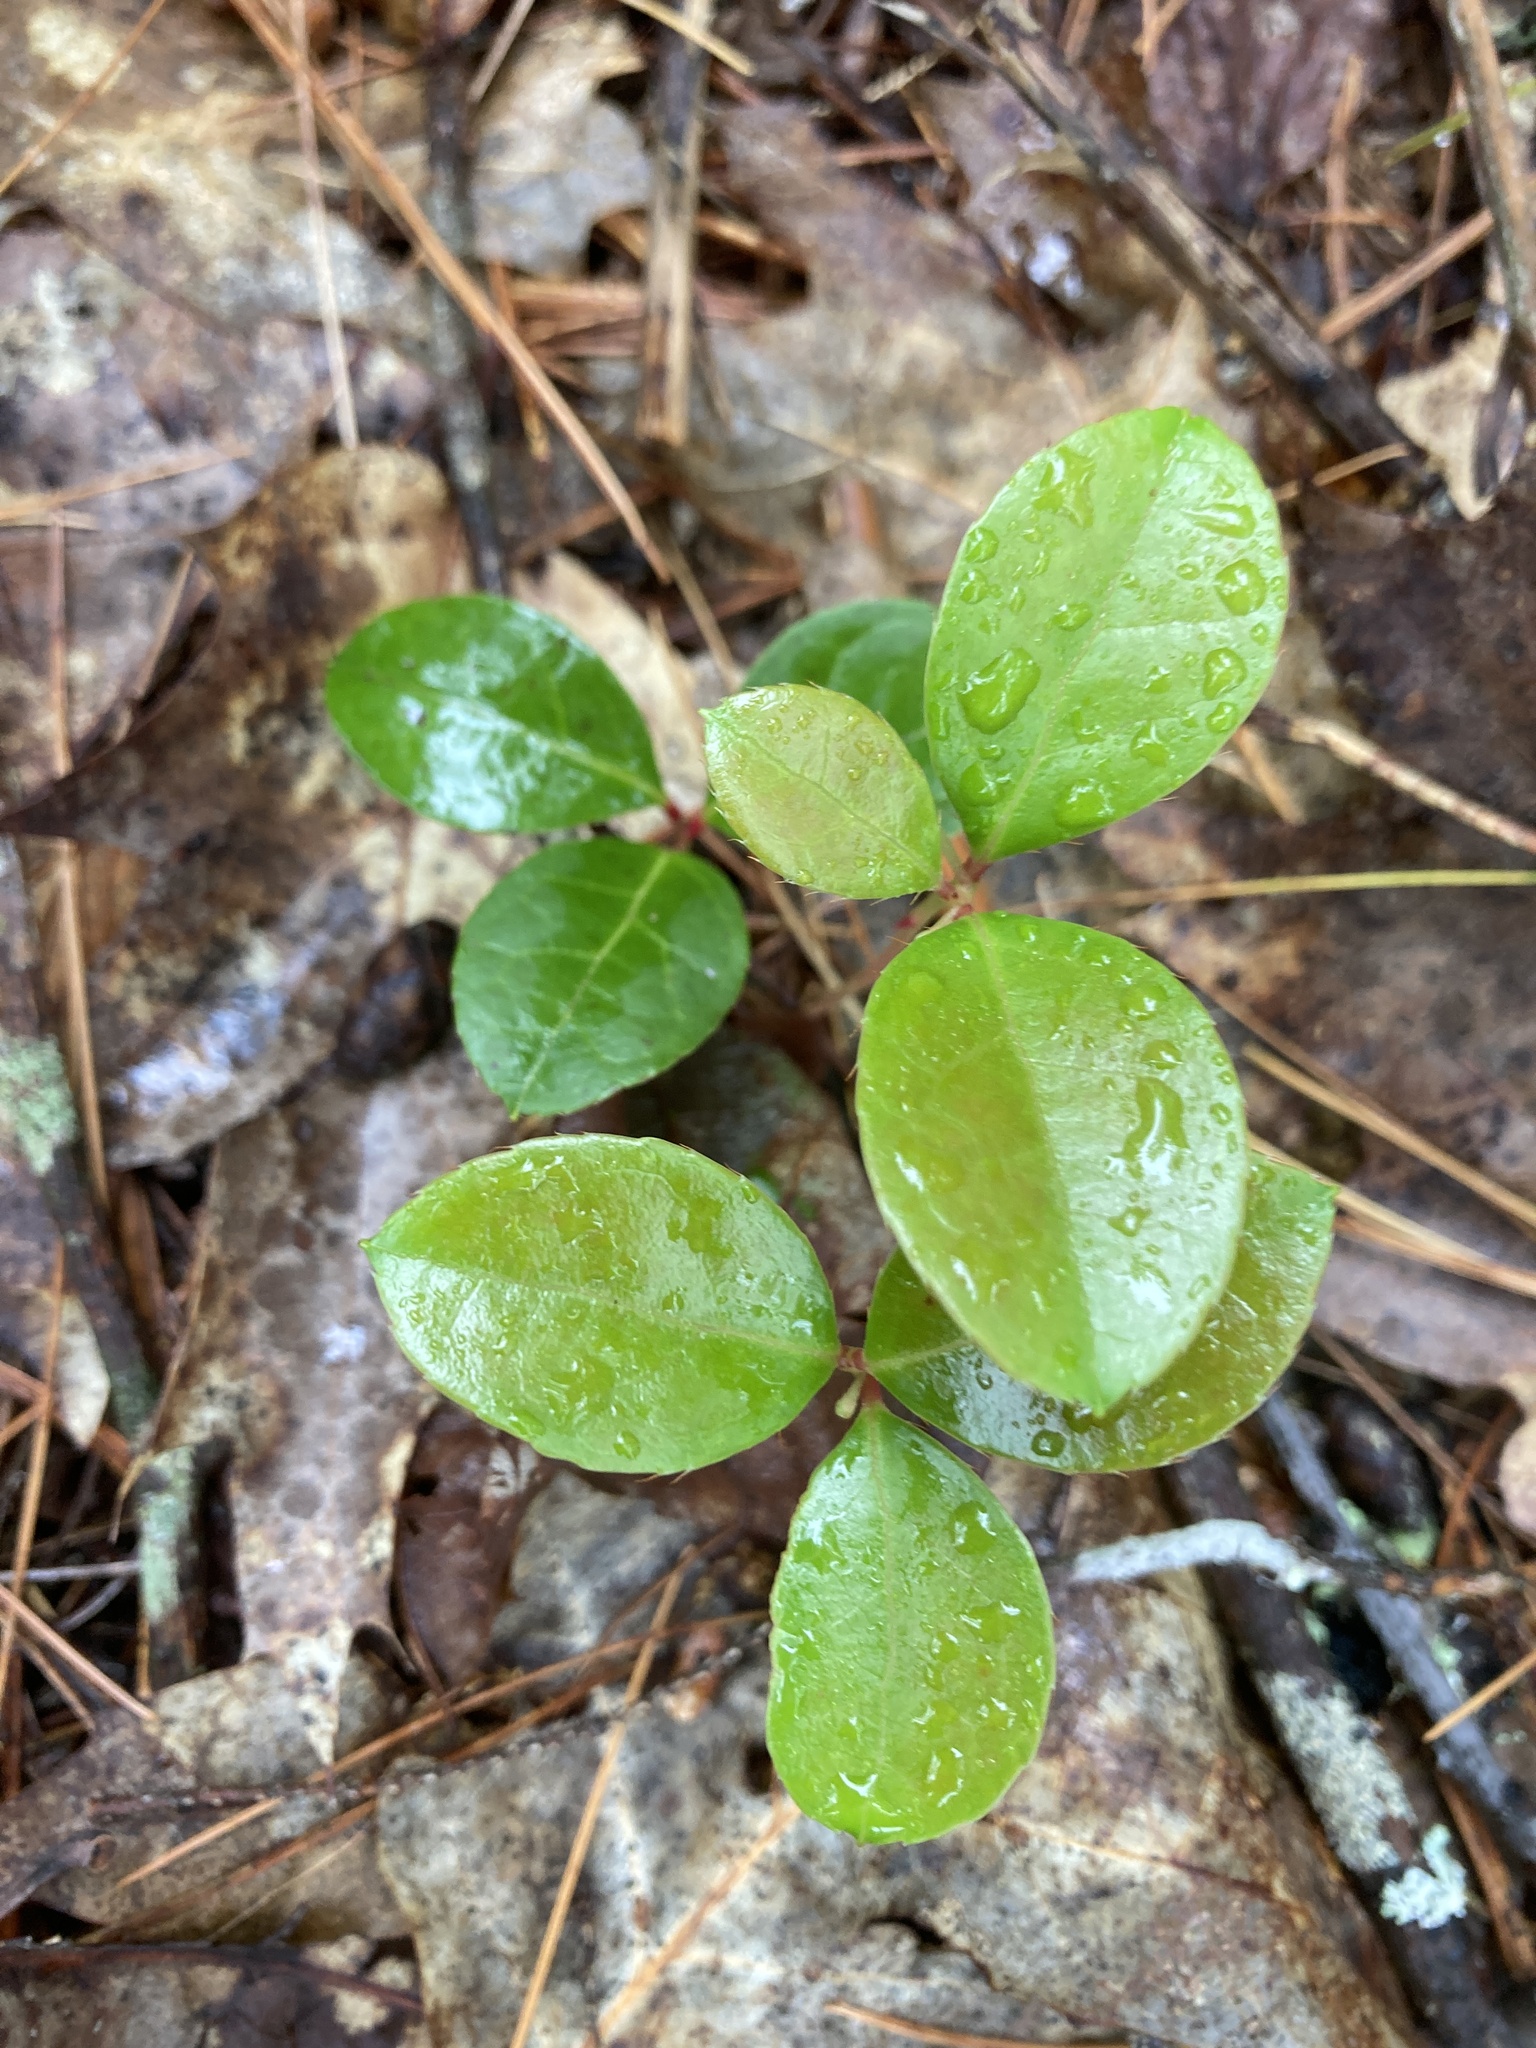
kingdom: Plantae
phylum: Tracheophyta
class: Magnoliopsida
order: Ericales
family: Ericaceae
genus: Gaultheria
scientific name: Gaultheria procumbens
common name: Checkerberry
